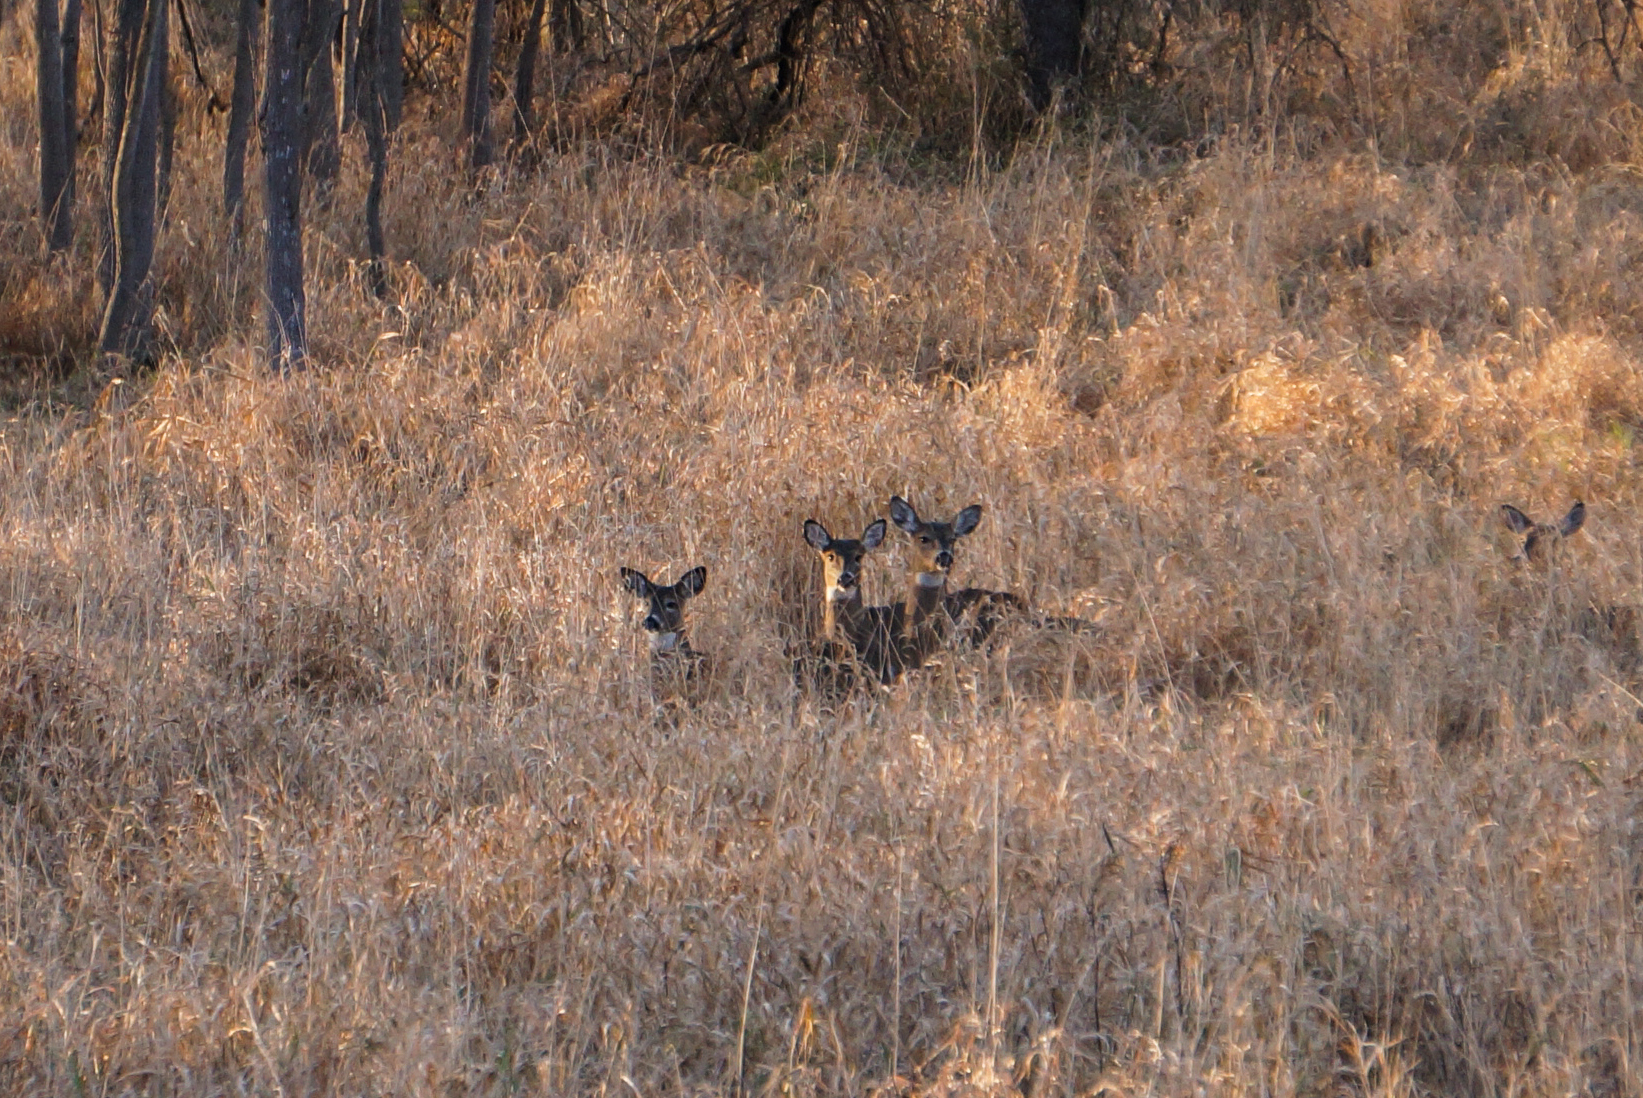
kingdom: Animalia
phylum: Chordata
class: Mammalia
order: Artiodactyla
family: Cervidae
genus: Odocoileus
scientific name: Odocoileus virginianus
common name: White-tailed deer
